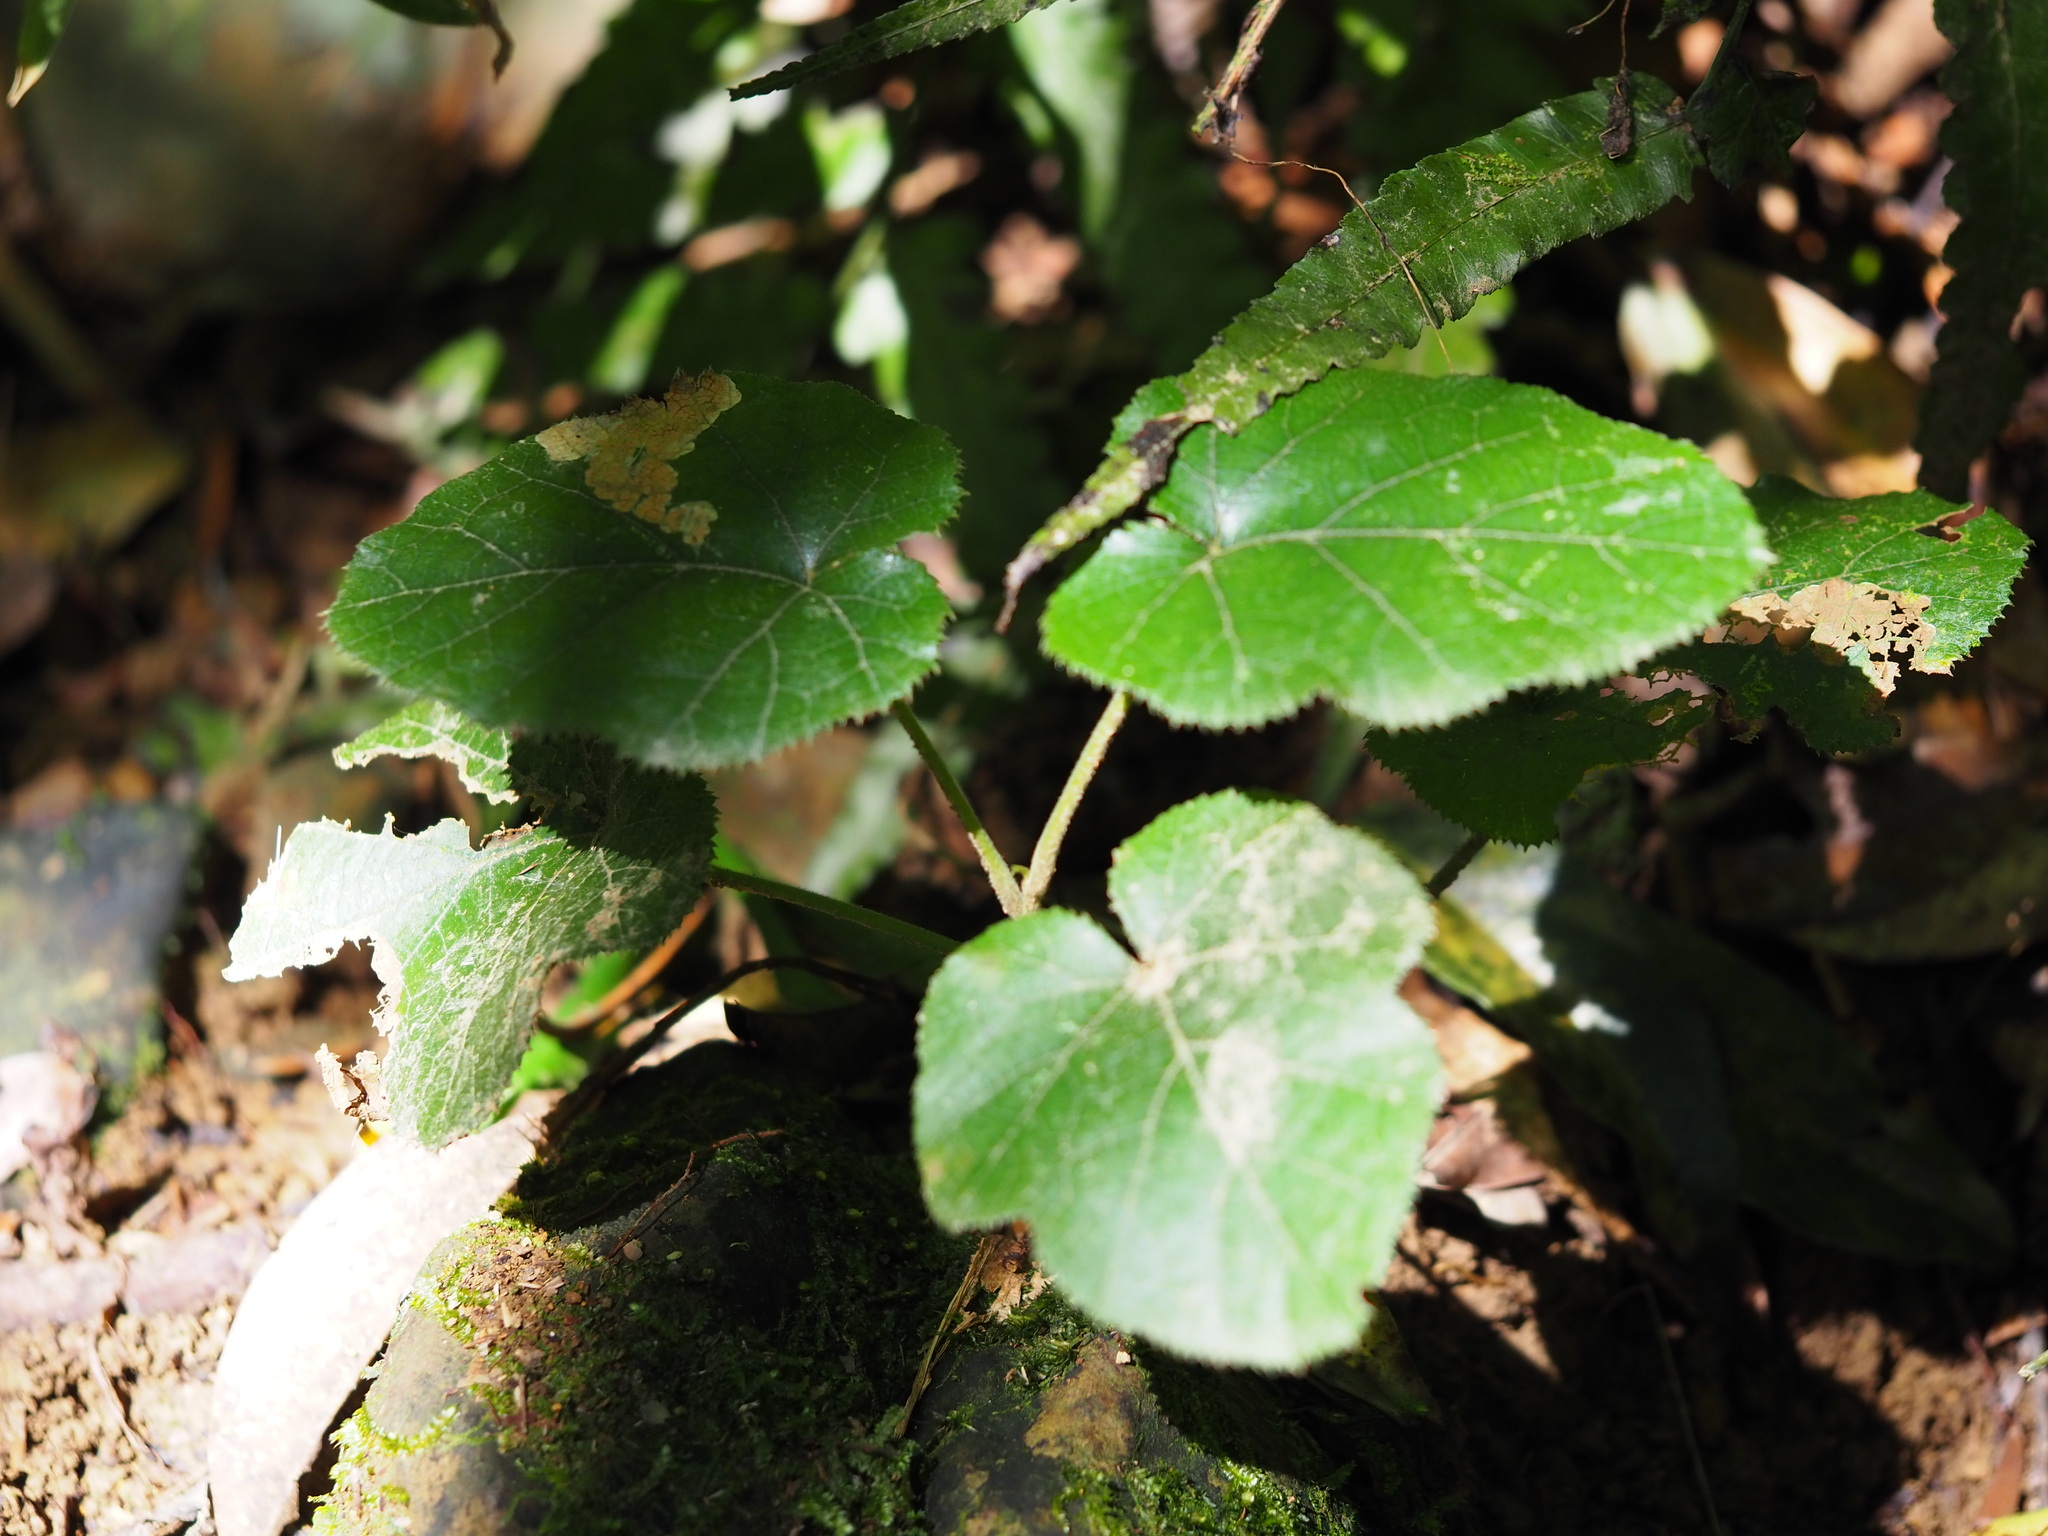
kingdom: Plantae
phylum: Tracheophyta
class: Magnoliopsida
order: Rosales
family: Rosaceae
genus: Rubus
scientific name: Rubus buergeri
